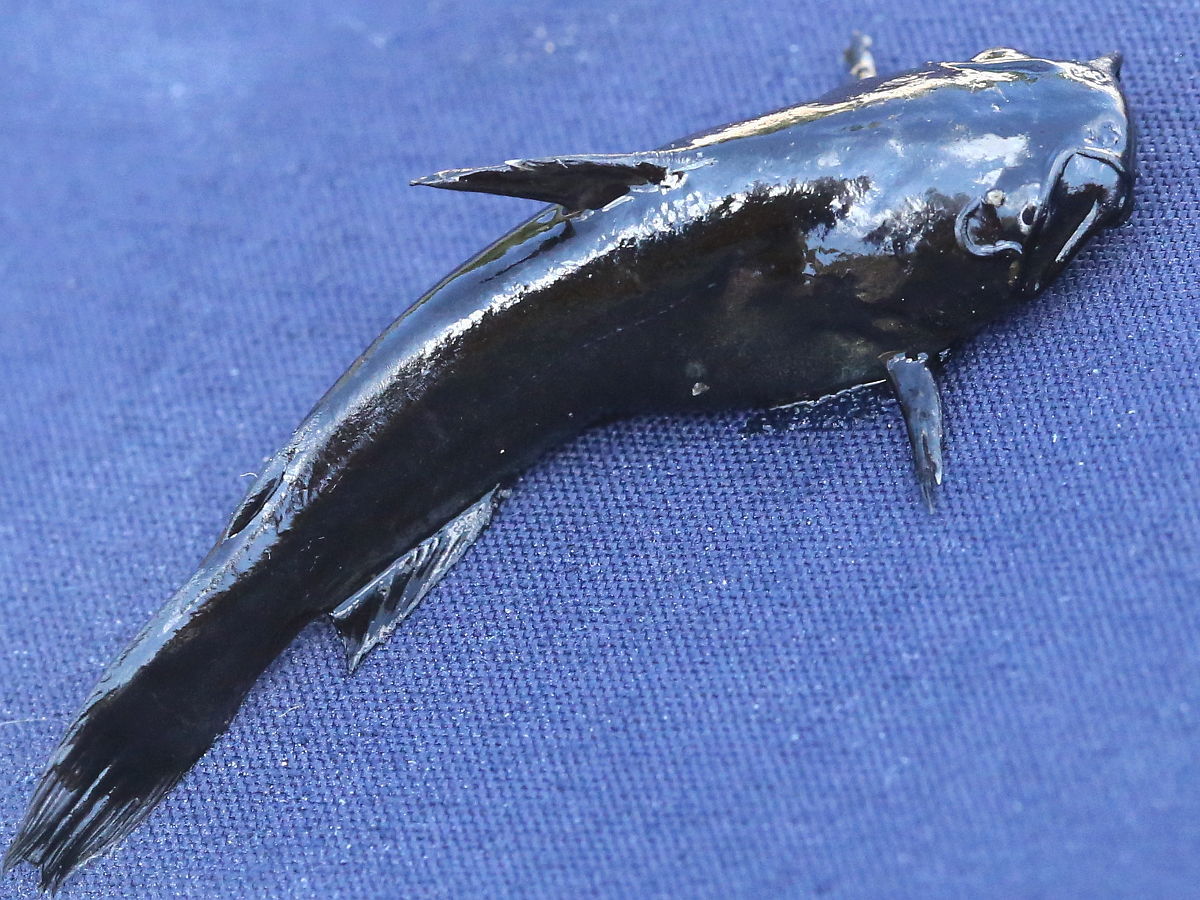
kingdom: Animalia
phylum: Chordata
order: Siluriformes
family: Ictaluridae
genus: Ameiurus
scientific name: Ameiurus melas
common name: Black bullhead
